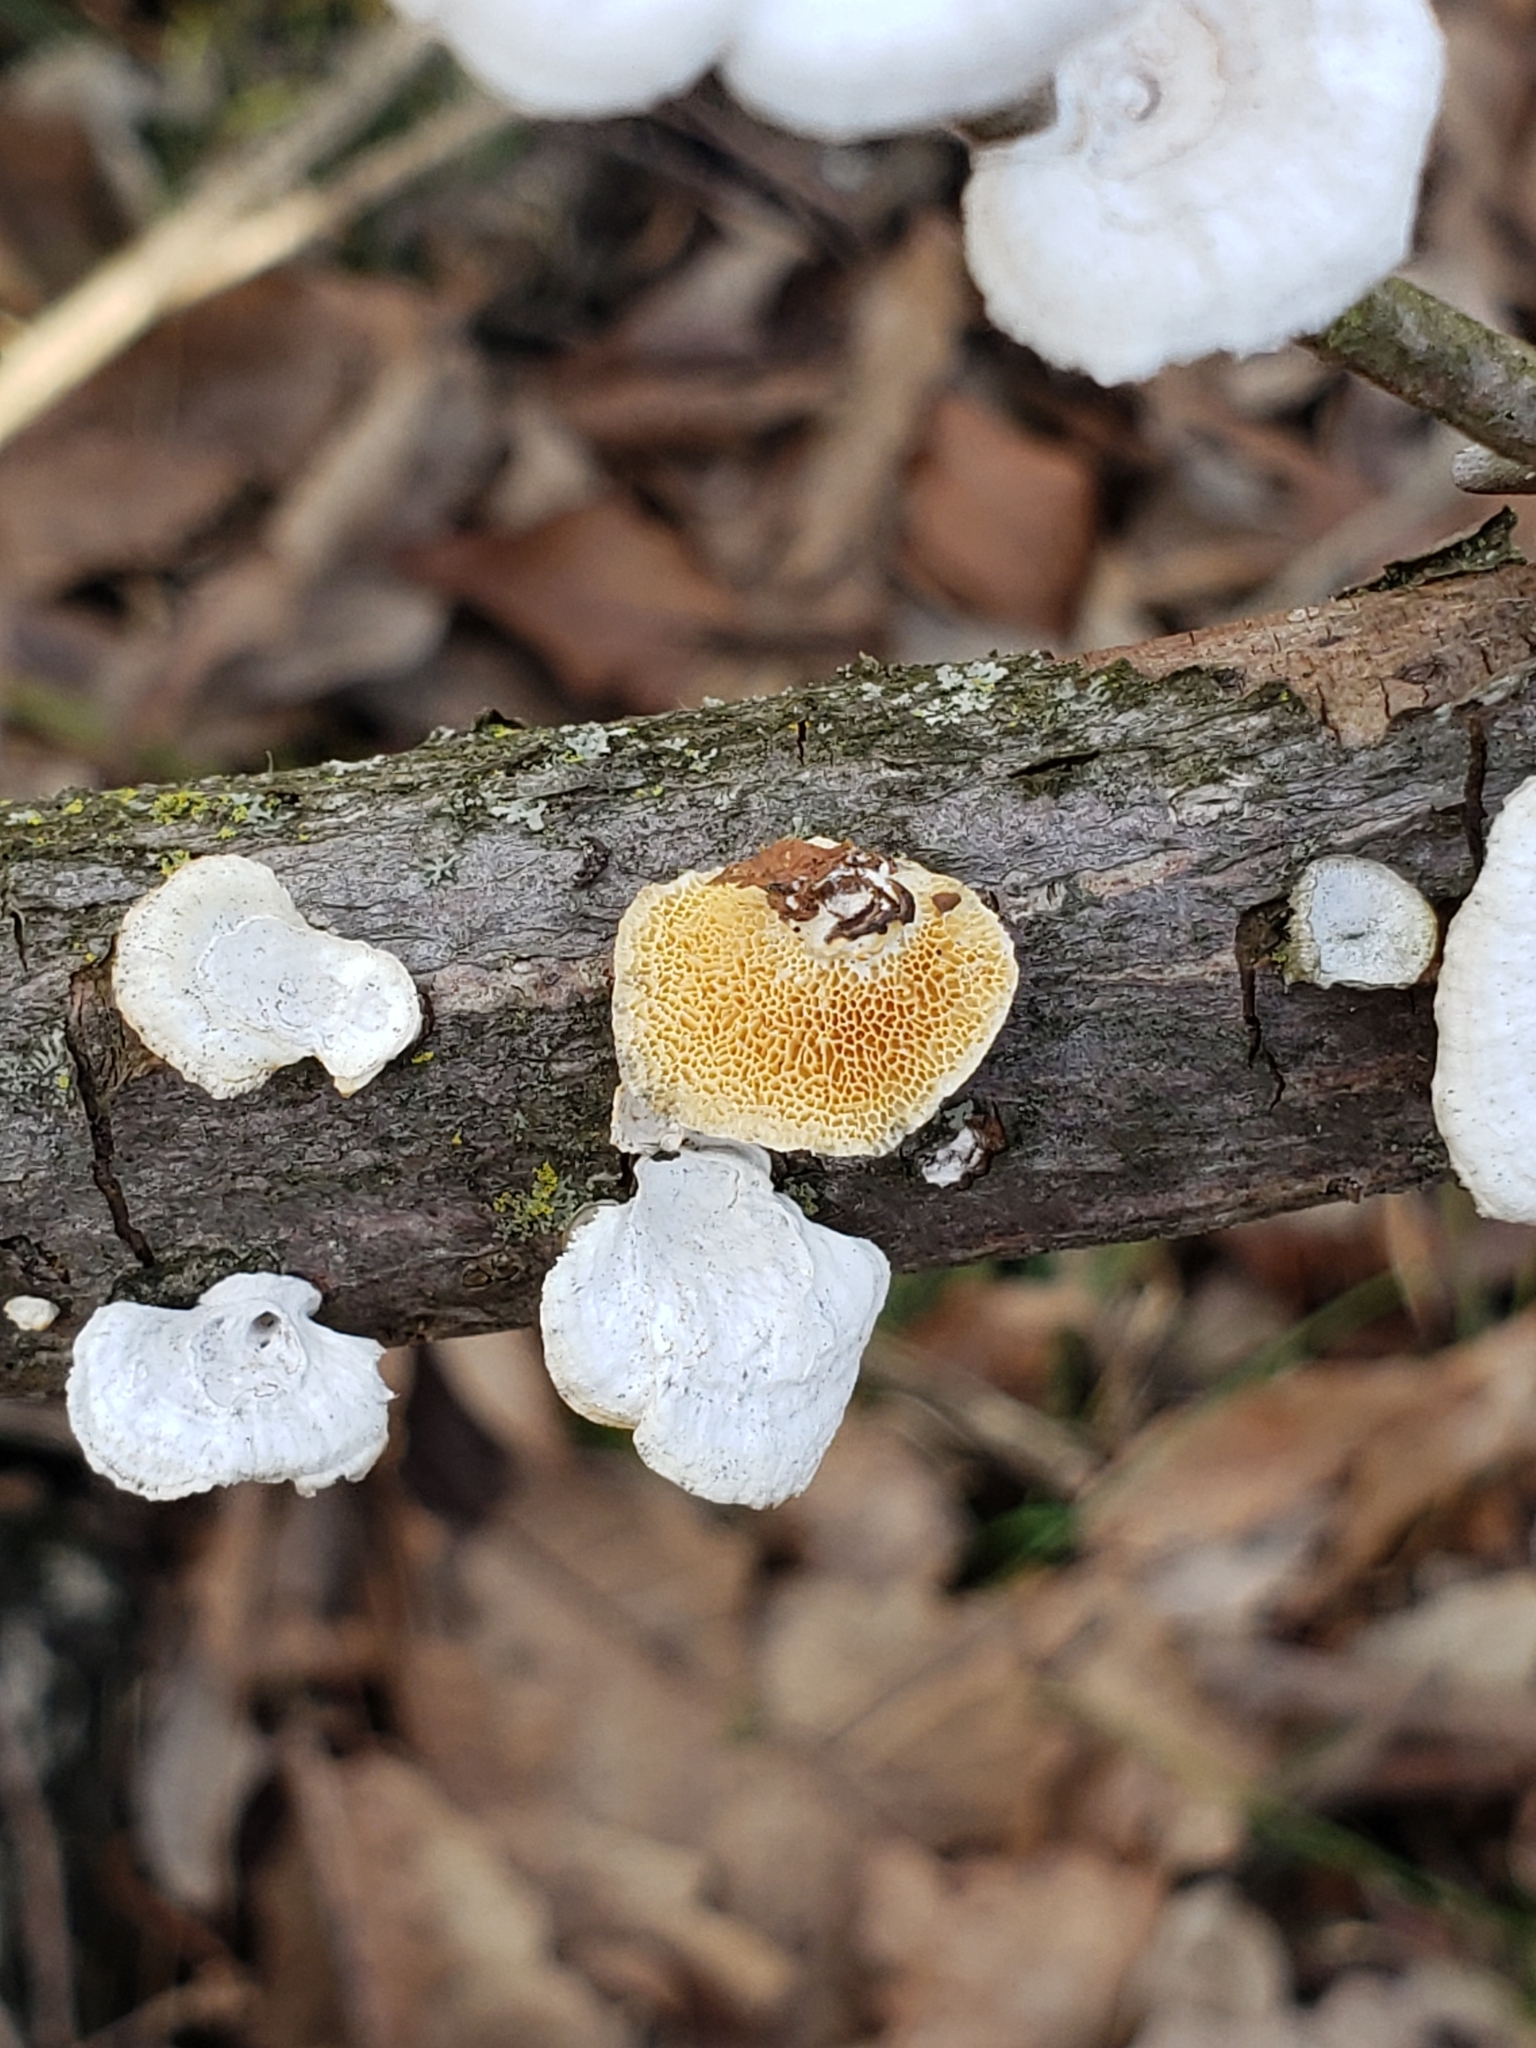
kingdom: Fungi
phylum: Basidiomycota
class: Agaricomycetes
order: Polyporales
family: Polyporaceae
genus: Poronidulus
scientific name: Poronidulus conchifer
